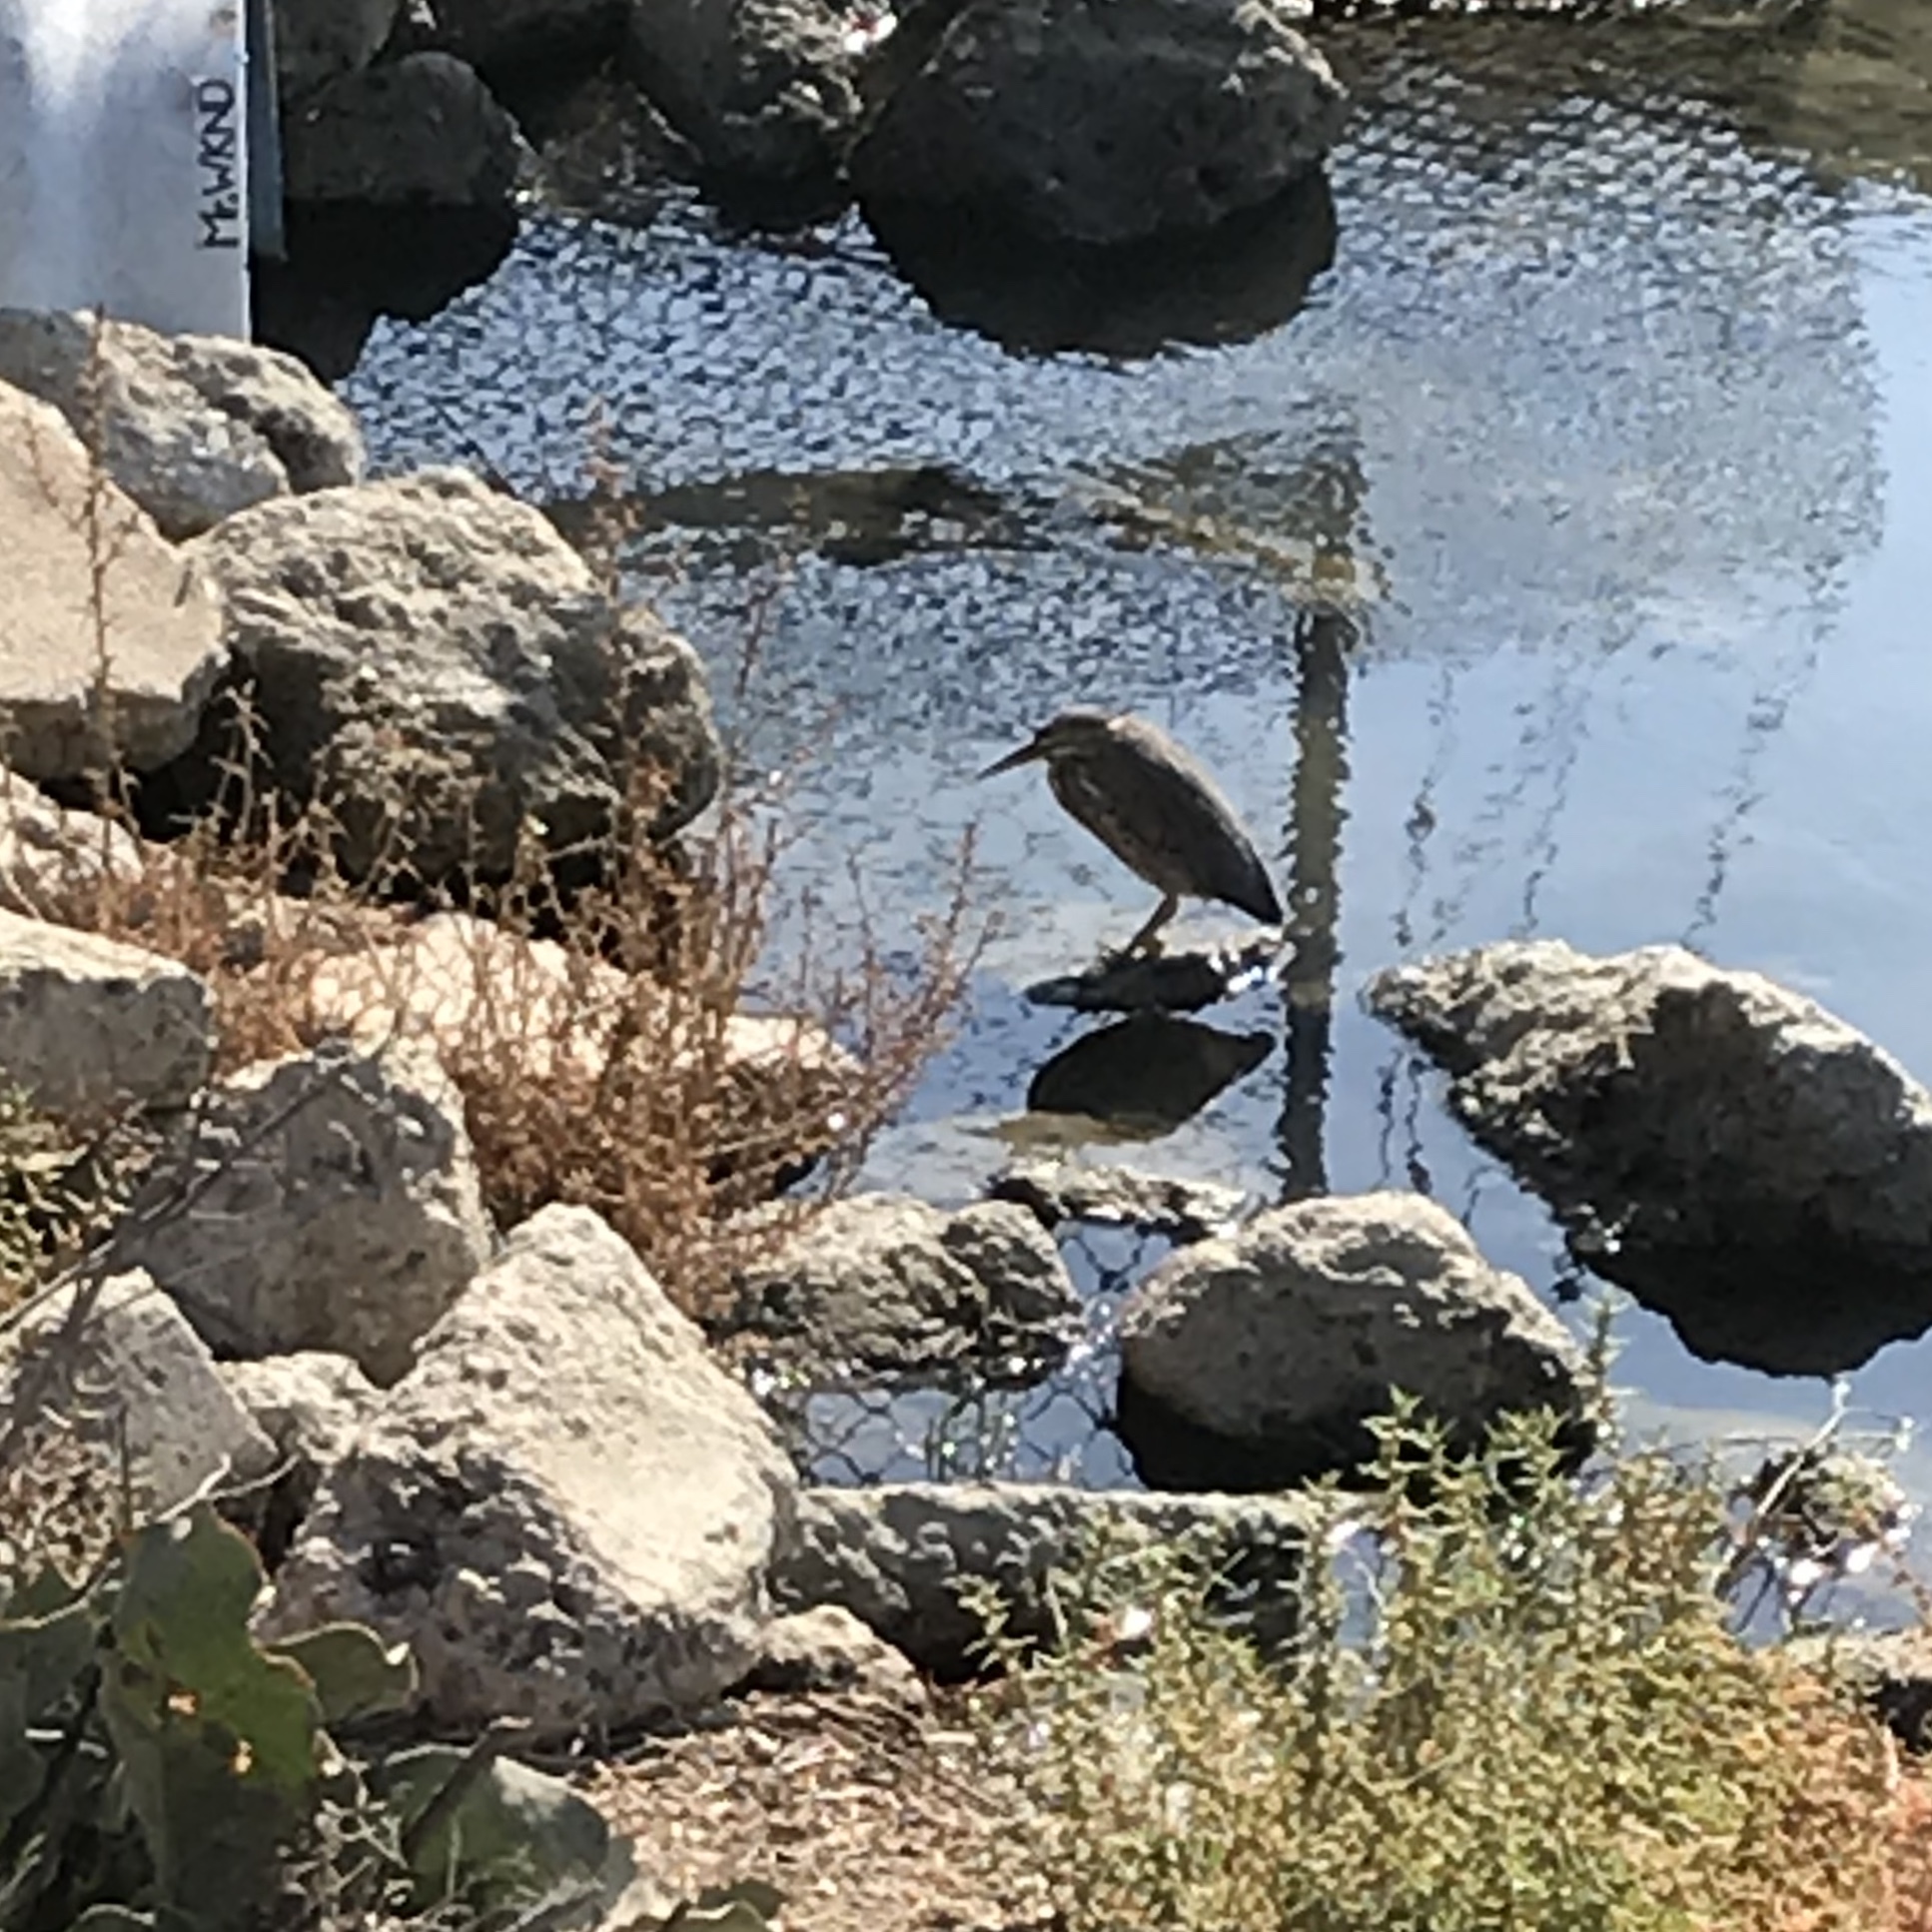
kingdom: Animalia
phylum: Chordata
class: Aves
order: Pelecaniformes
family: Ardeidae
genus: Butorides
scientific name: Butorides virescens
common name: Green heron
